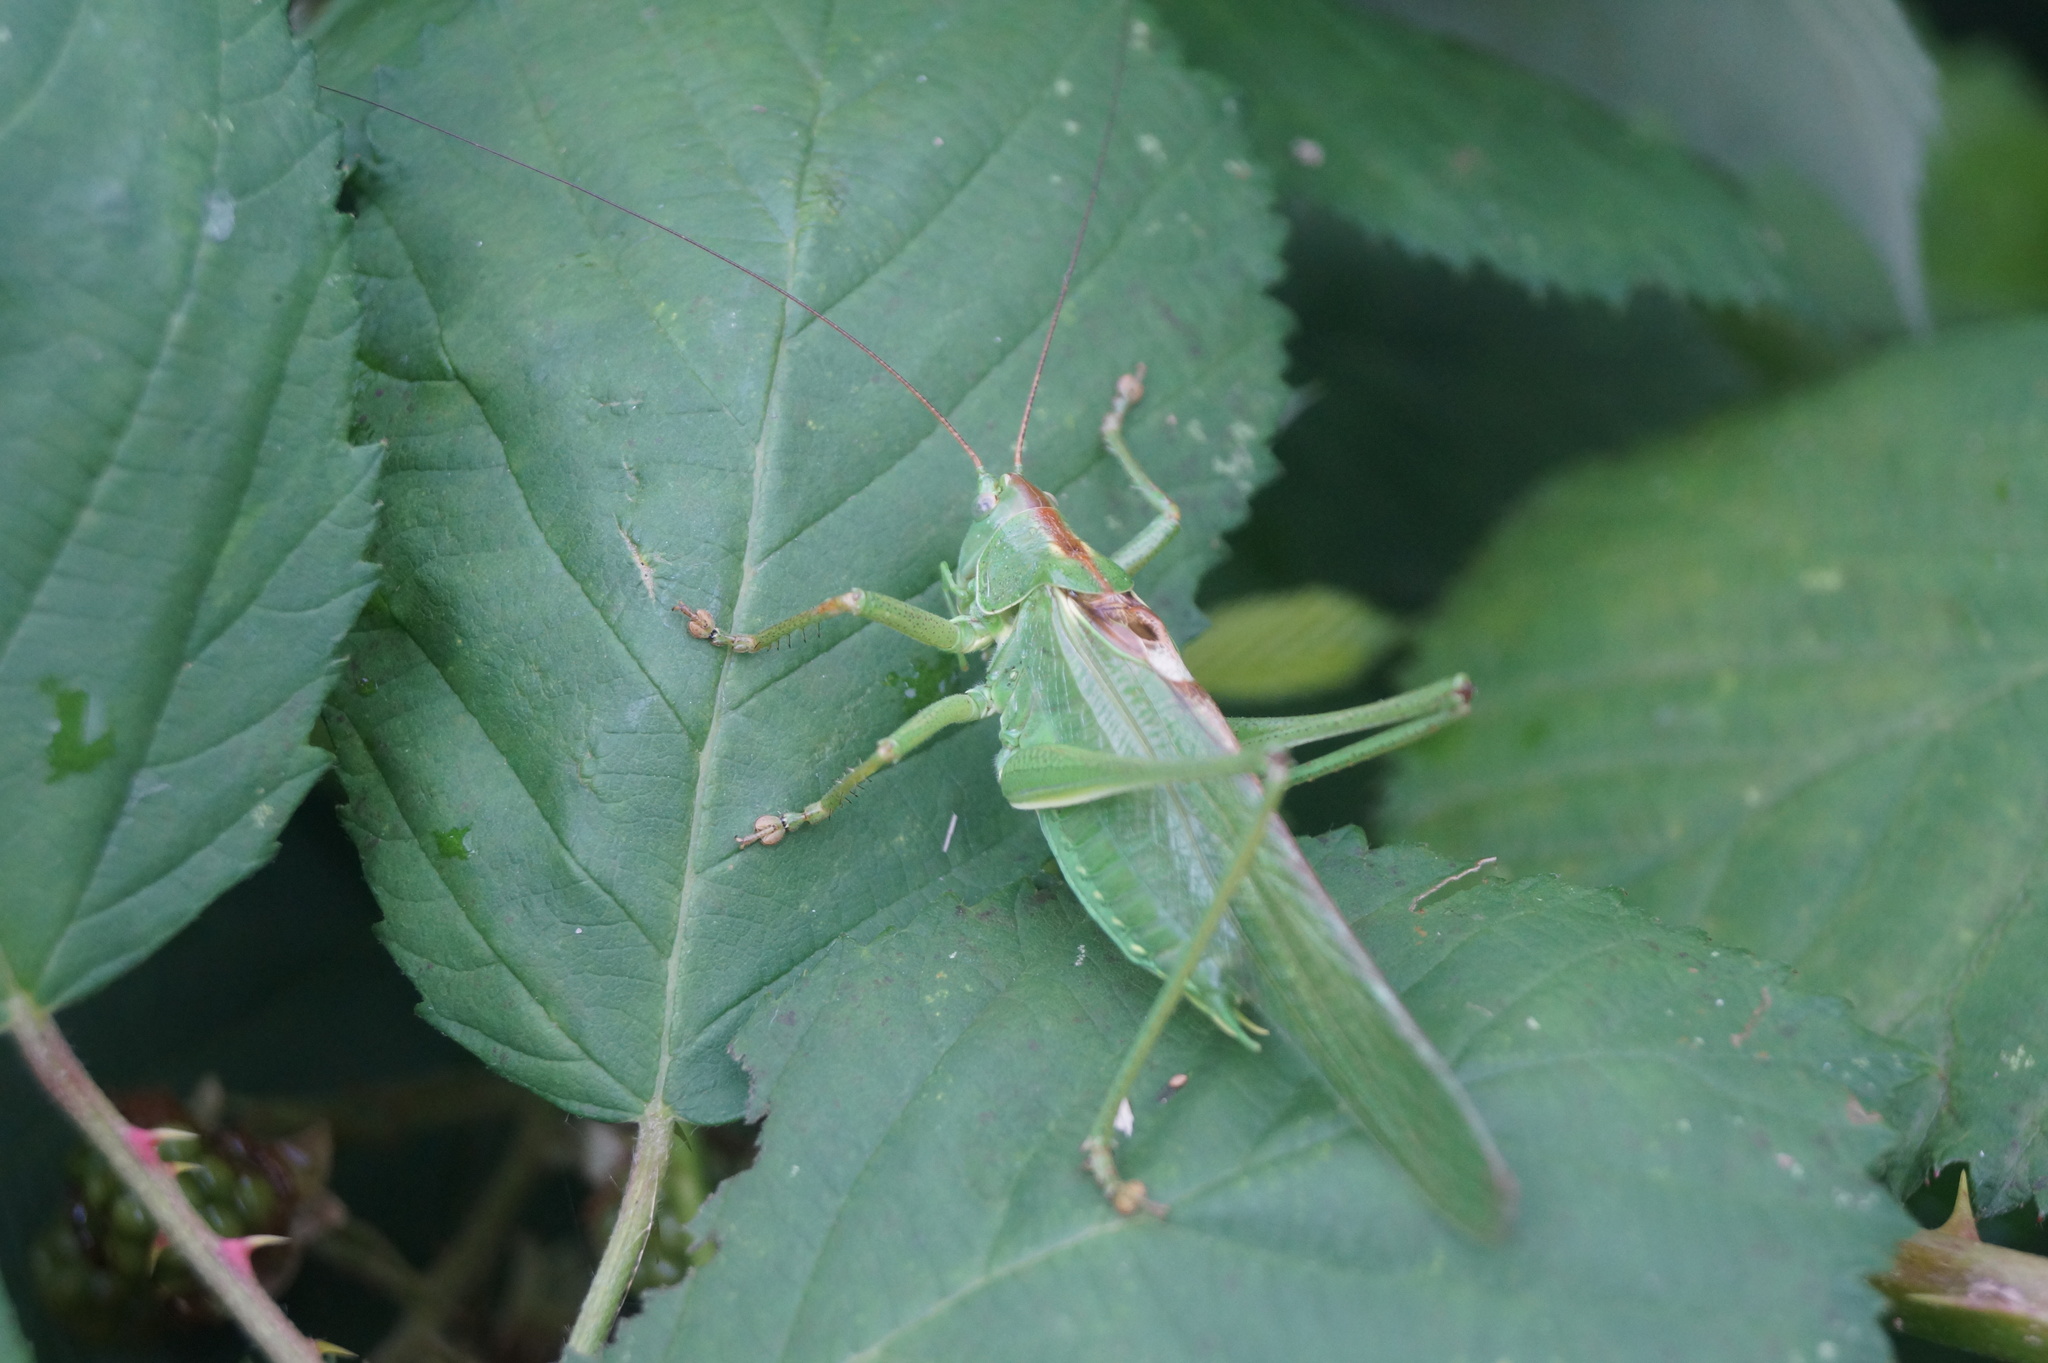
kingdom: Animalia
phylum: Arthropoda
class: Insecta
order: Orthoptera
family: Tettigoniidae
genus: Tettigonia
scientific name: Tettigonia viridissima
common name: Great green bush-cricket
